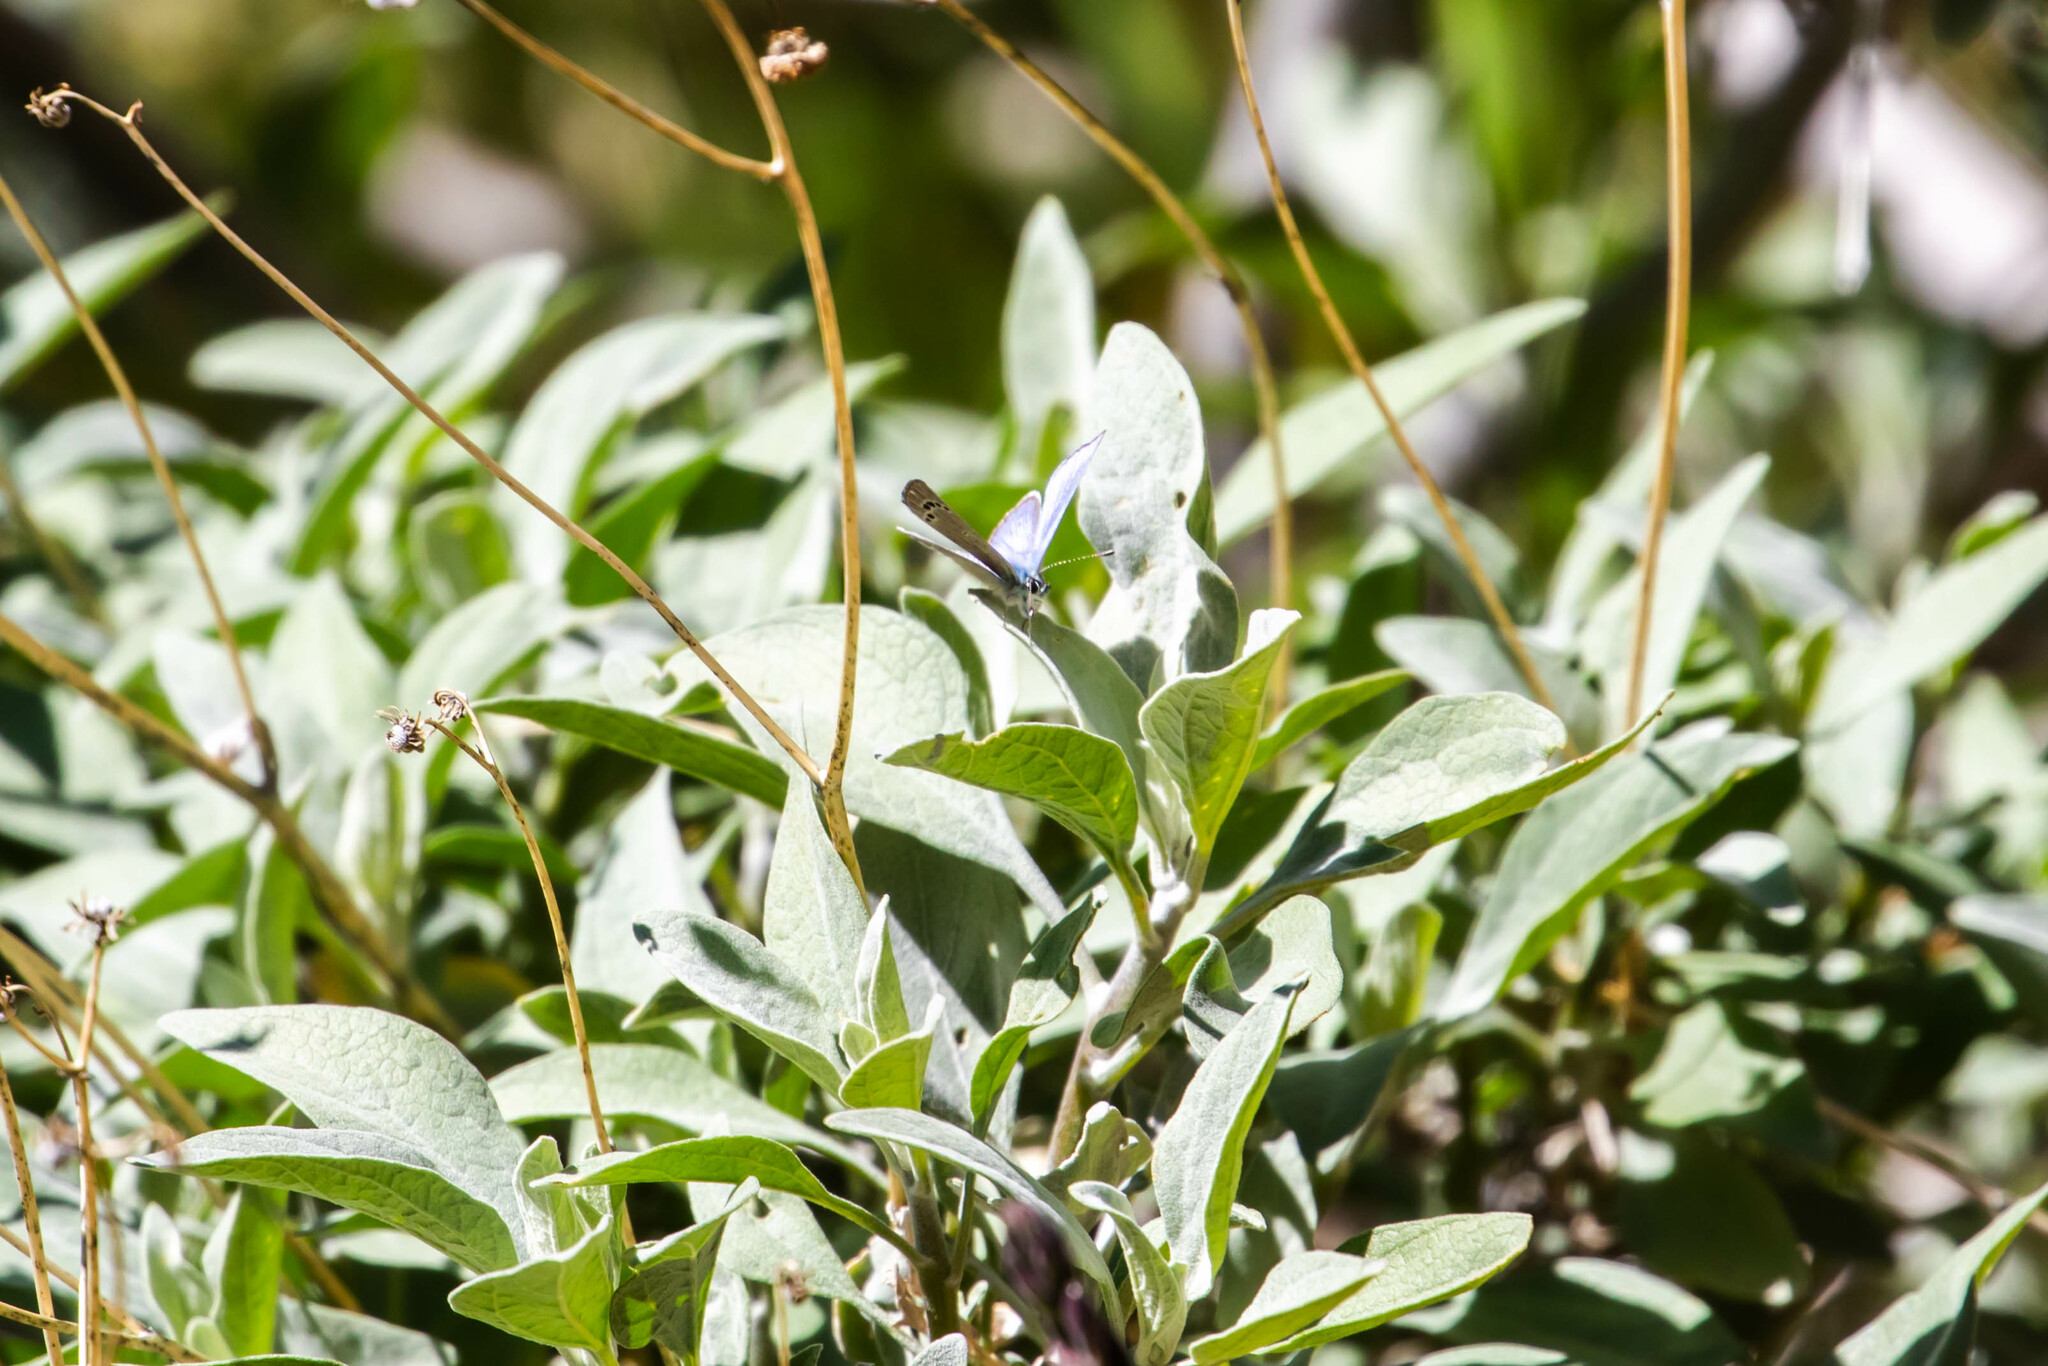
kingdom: Animalia
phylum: Arthropoda
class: Insecta
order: Lepidoptera
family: Lycaenidae
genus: Glaucopsyche
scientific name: Glaucopsyche lygdamus
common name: Silvery blue
